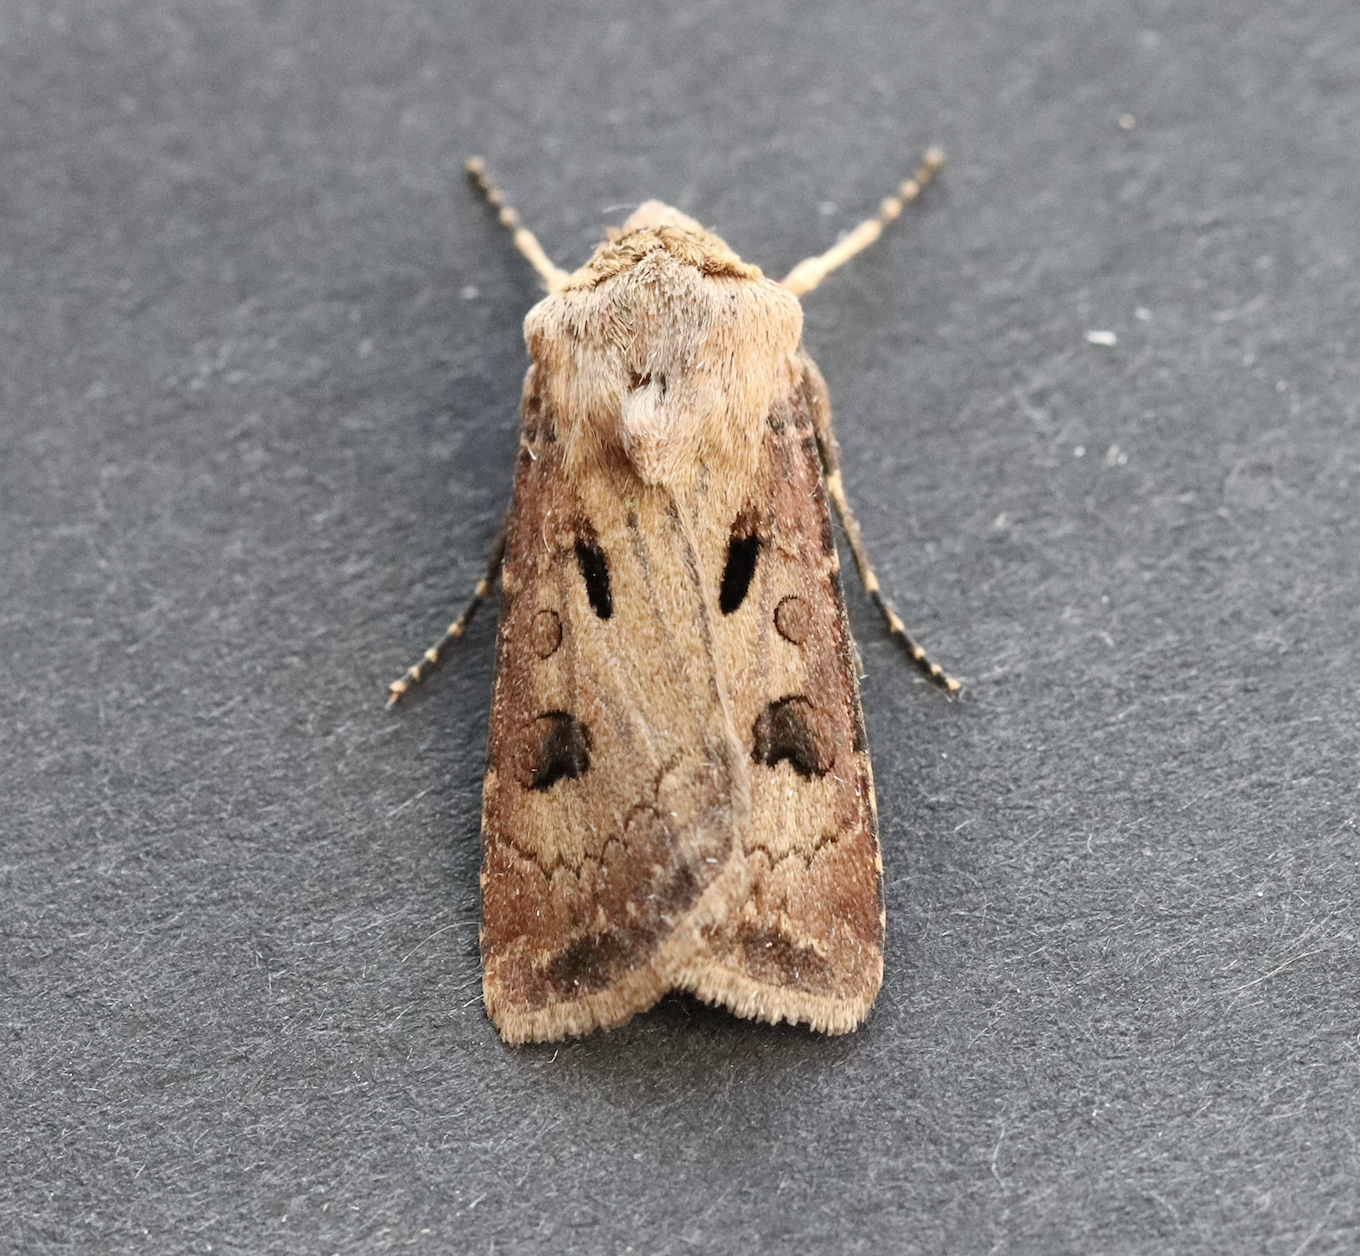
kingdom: Animalia
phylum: Arthropoda
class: Insecta
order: Lepidoptera
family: Noctuidae
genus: Agrotis
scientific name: Agrotis exclamationis
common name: Heart and dart
